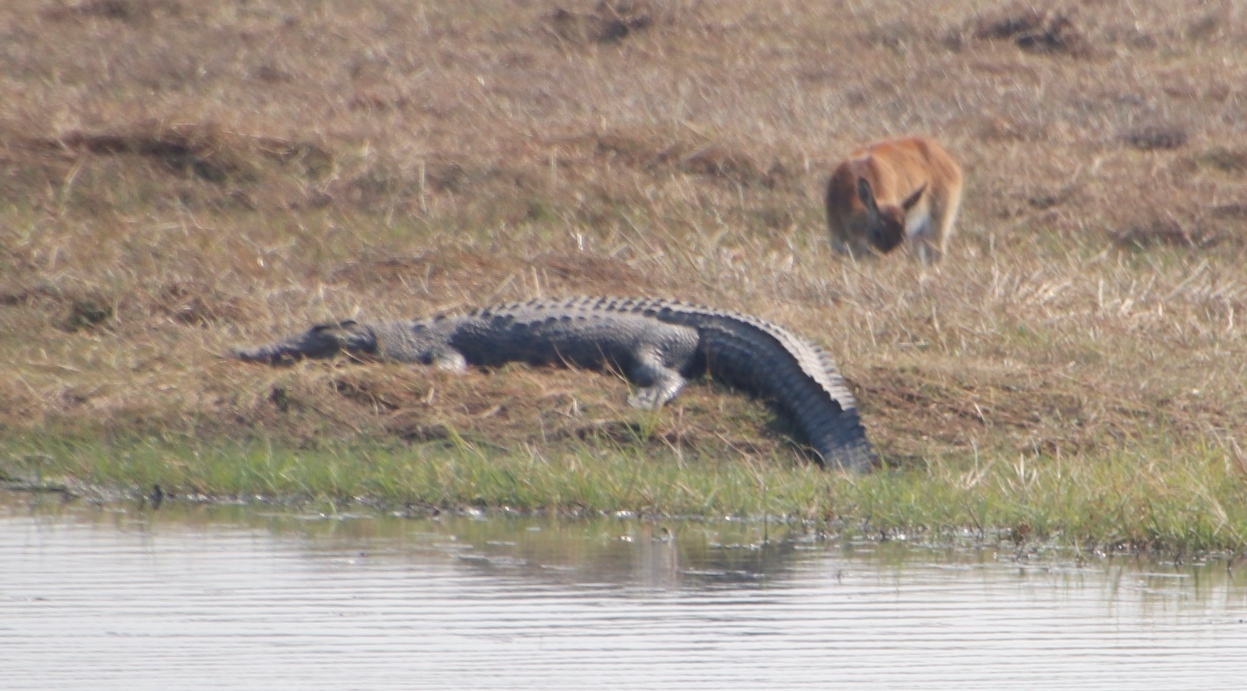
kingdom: Animalia
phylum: Chordata
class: Mammalia
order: Artiodactyla
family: Bovidae
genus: Kobus
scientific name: Kobus leche
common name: Lechwe
